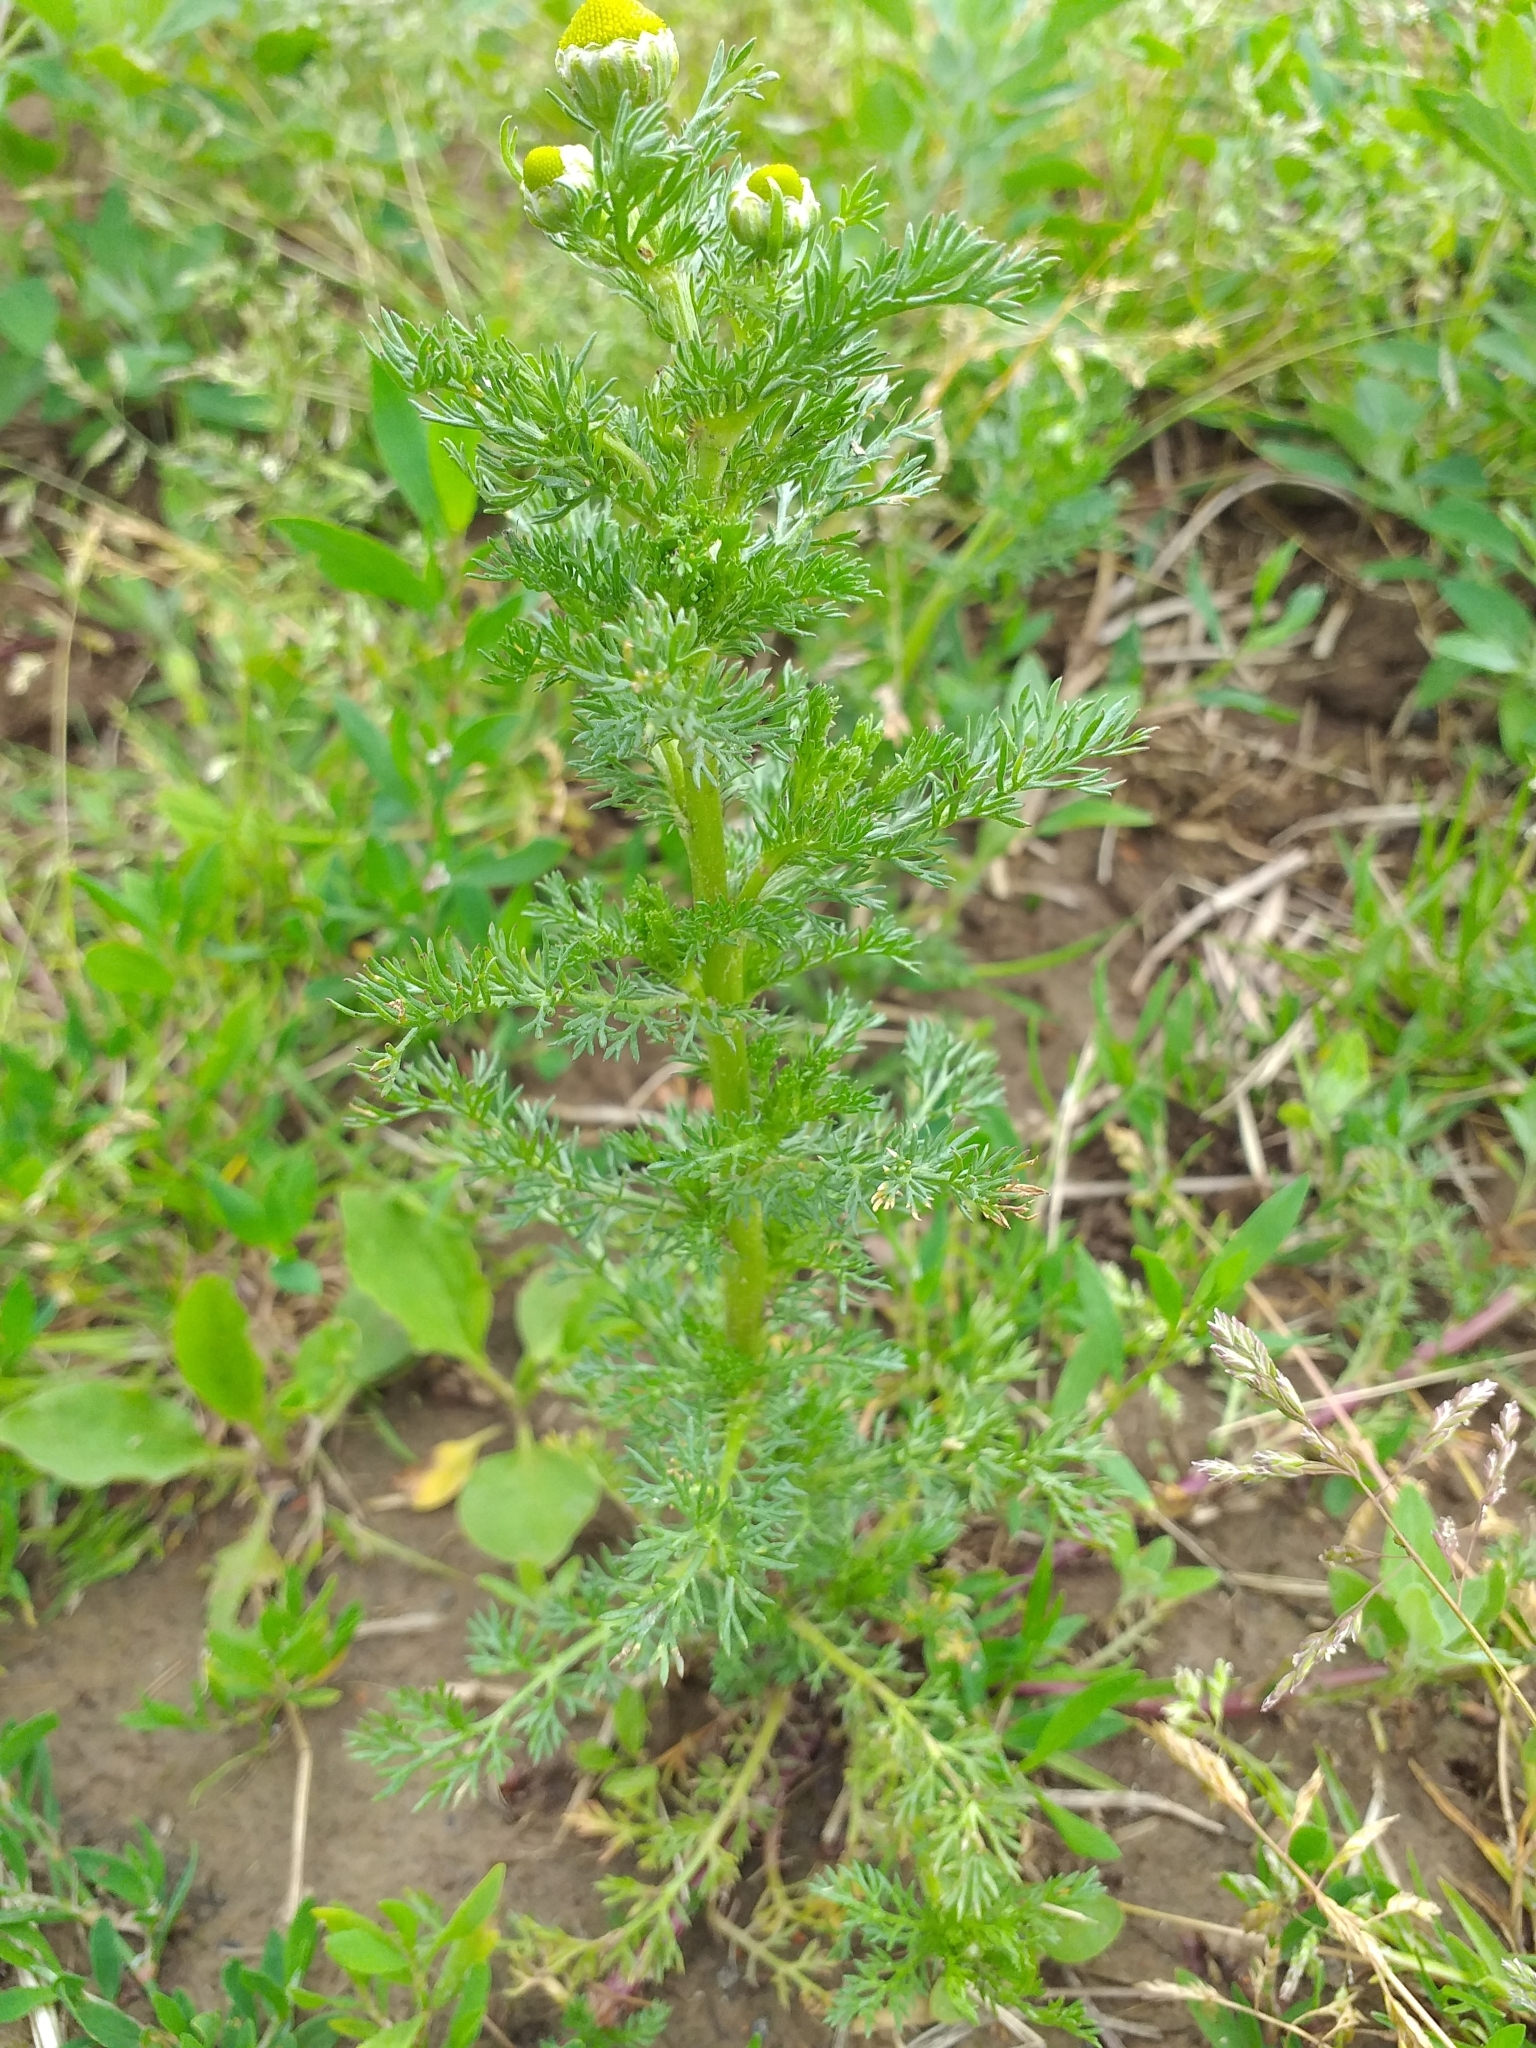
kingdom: Plantae
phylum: Tracheophyta
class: Magnoliopsida
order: Asterales
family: Asteraceae
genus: Matricaria
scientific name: Matricaria discoidea
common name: Disc mayweed
